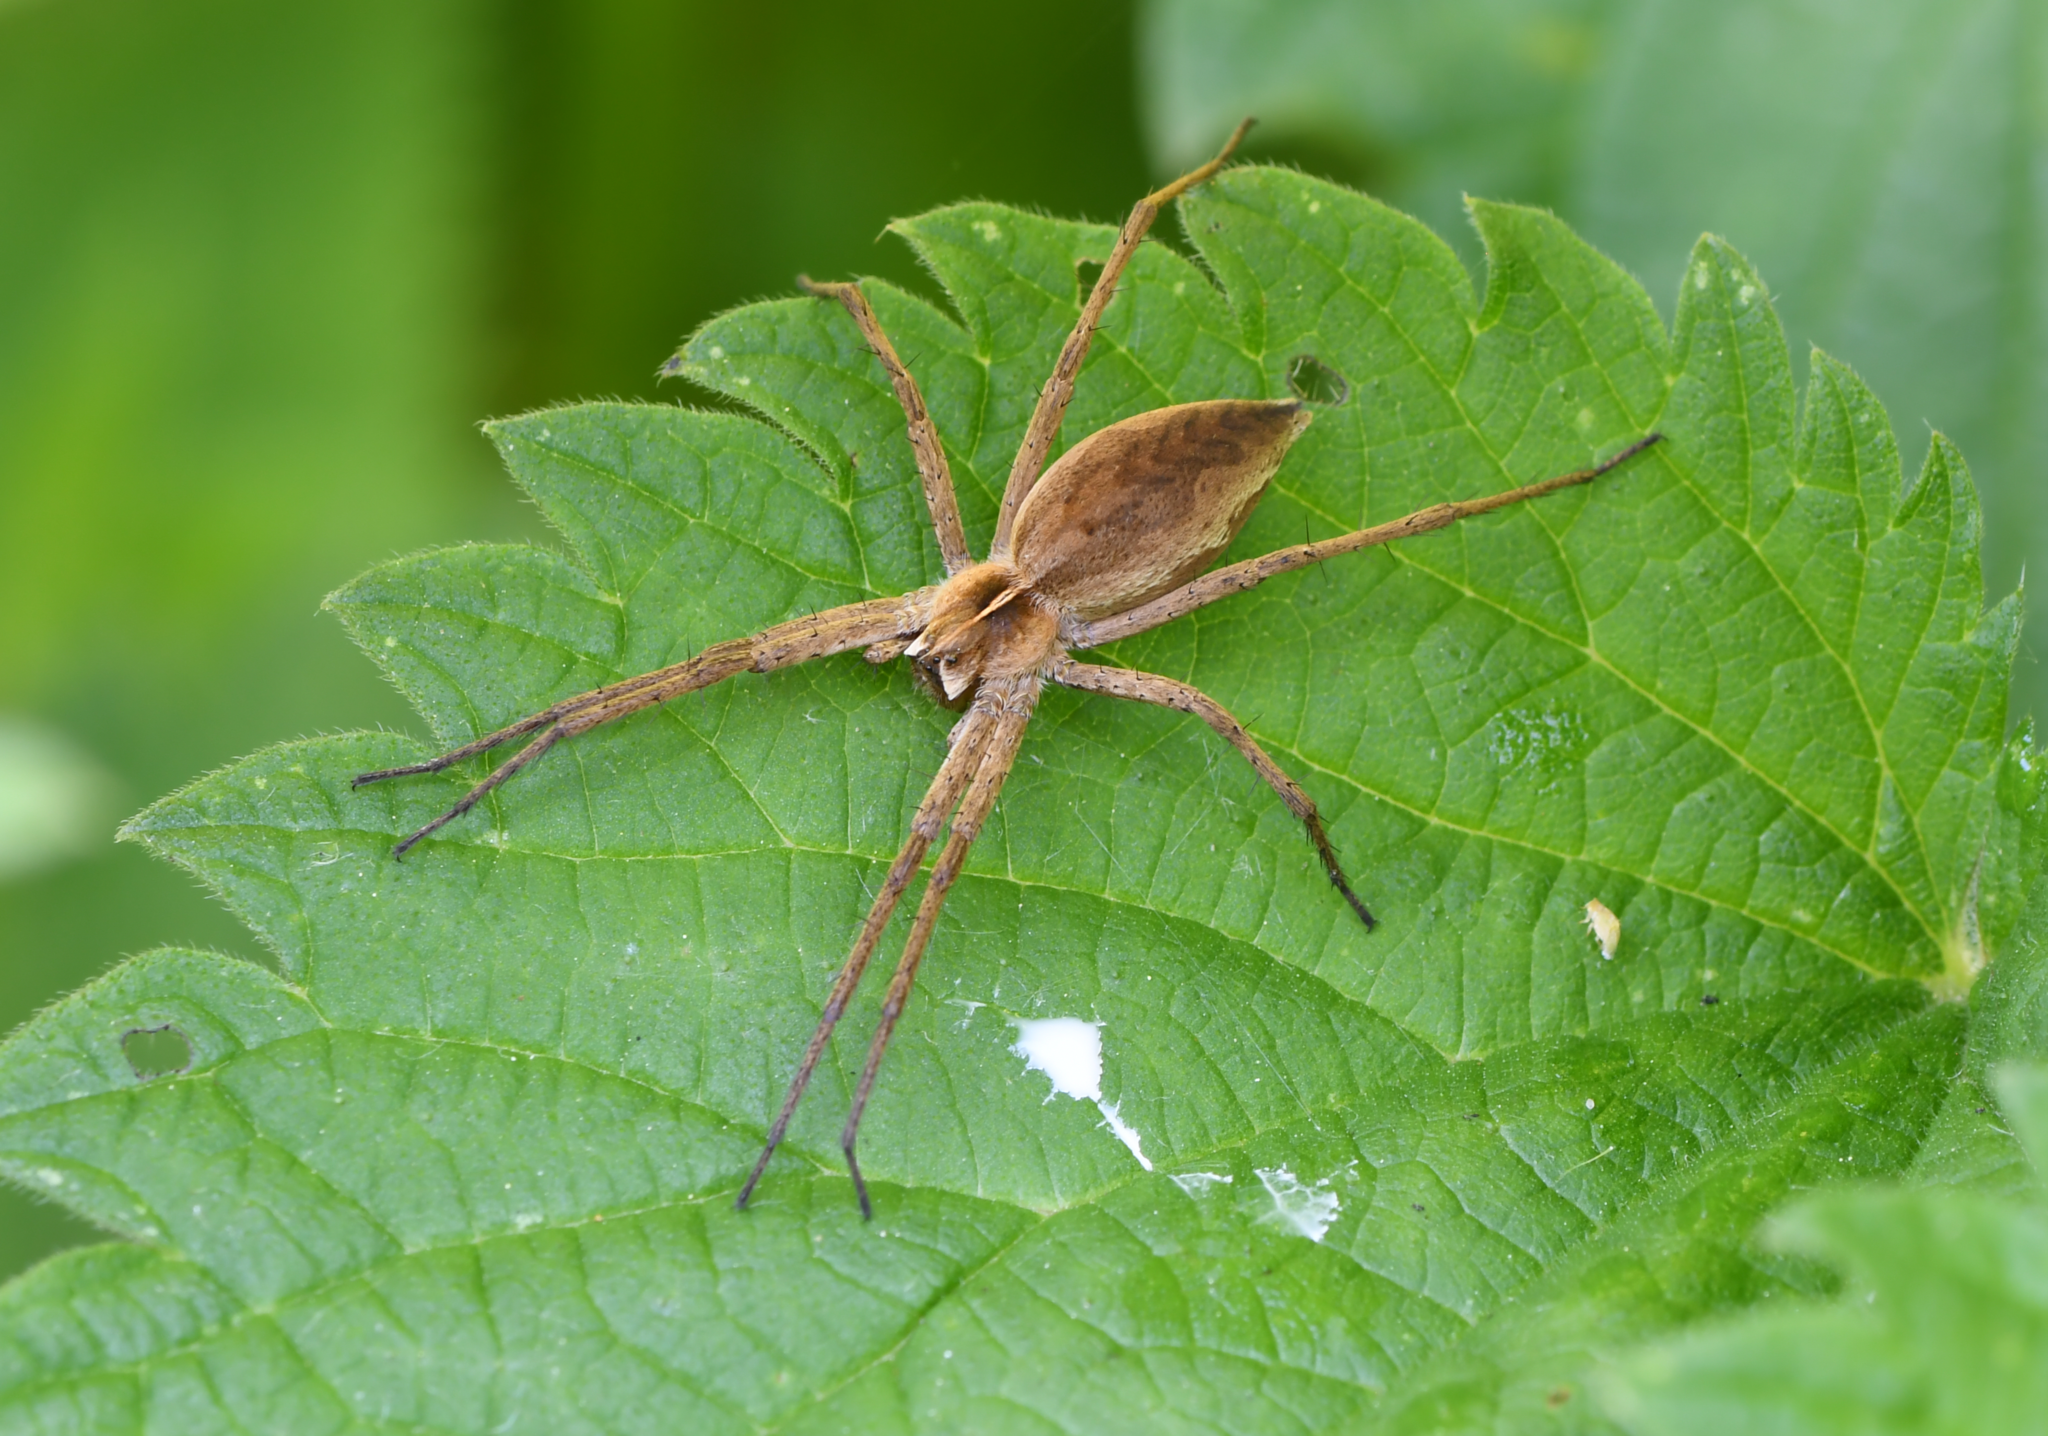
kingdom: Animalia
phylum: Arthropoda
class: Arachnida
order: Araneae
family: Pisauridae
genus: Pisaura
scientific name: Pisaura mirabilis
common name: Tent spider
